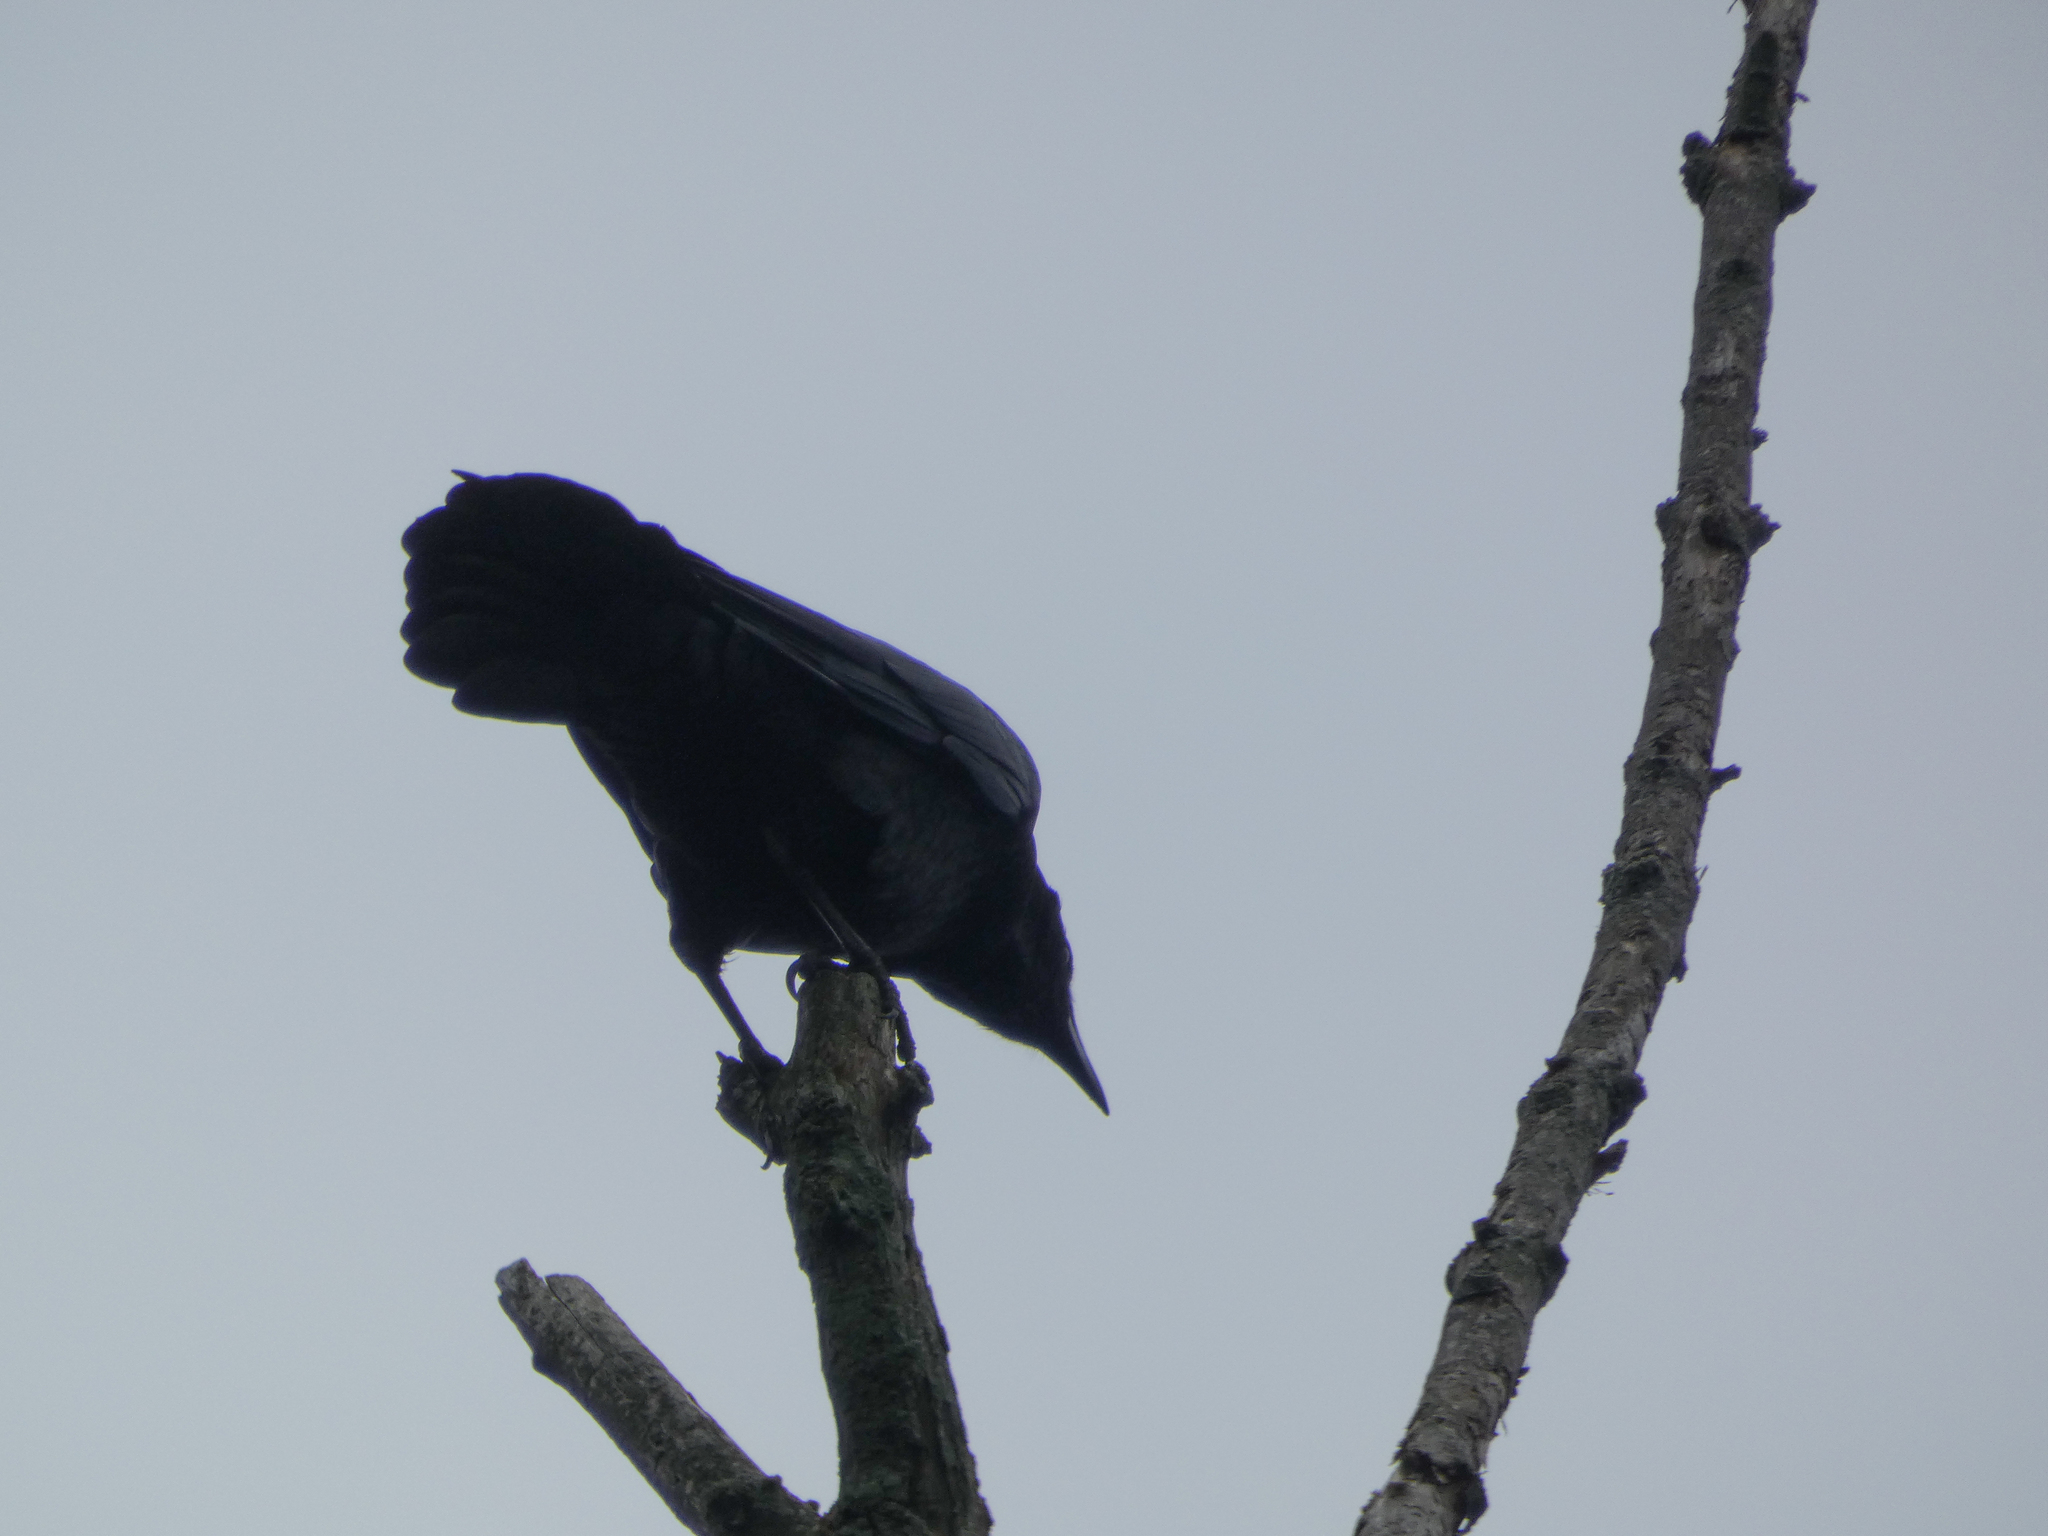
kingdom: Animalia
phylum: Chordata
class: Aves
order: Passeriformes
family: Corvidae
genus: Corvus
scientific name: Corvus brachyrhynchos
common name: American crow
